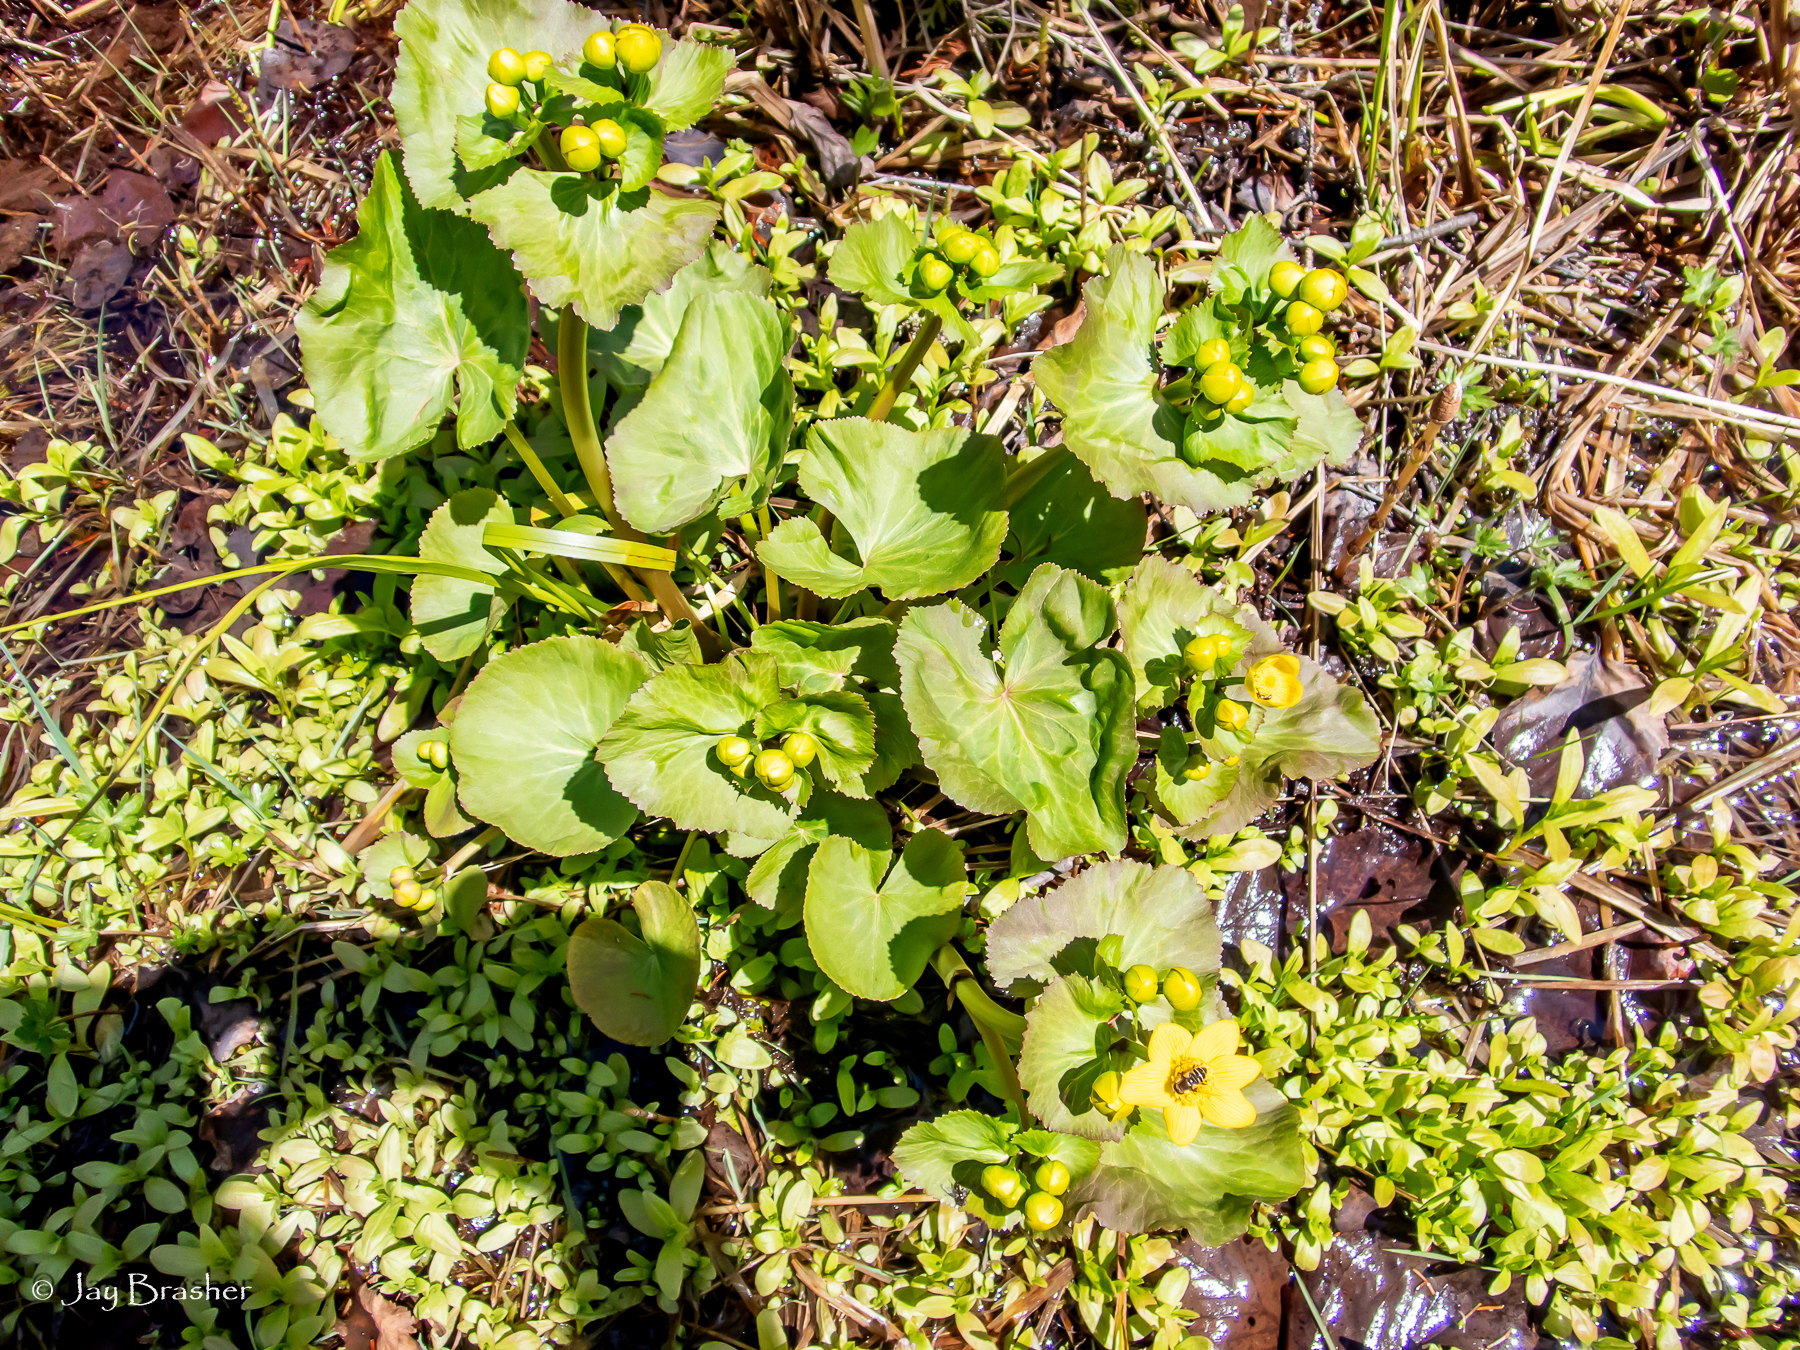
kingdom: Plantae
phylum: Tracheophyta
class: Magnoliopsida
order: Ranunculales
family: Ranunculaceae
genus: Caltha
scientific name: Caltha palustris
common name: Marsh marigold
